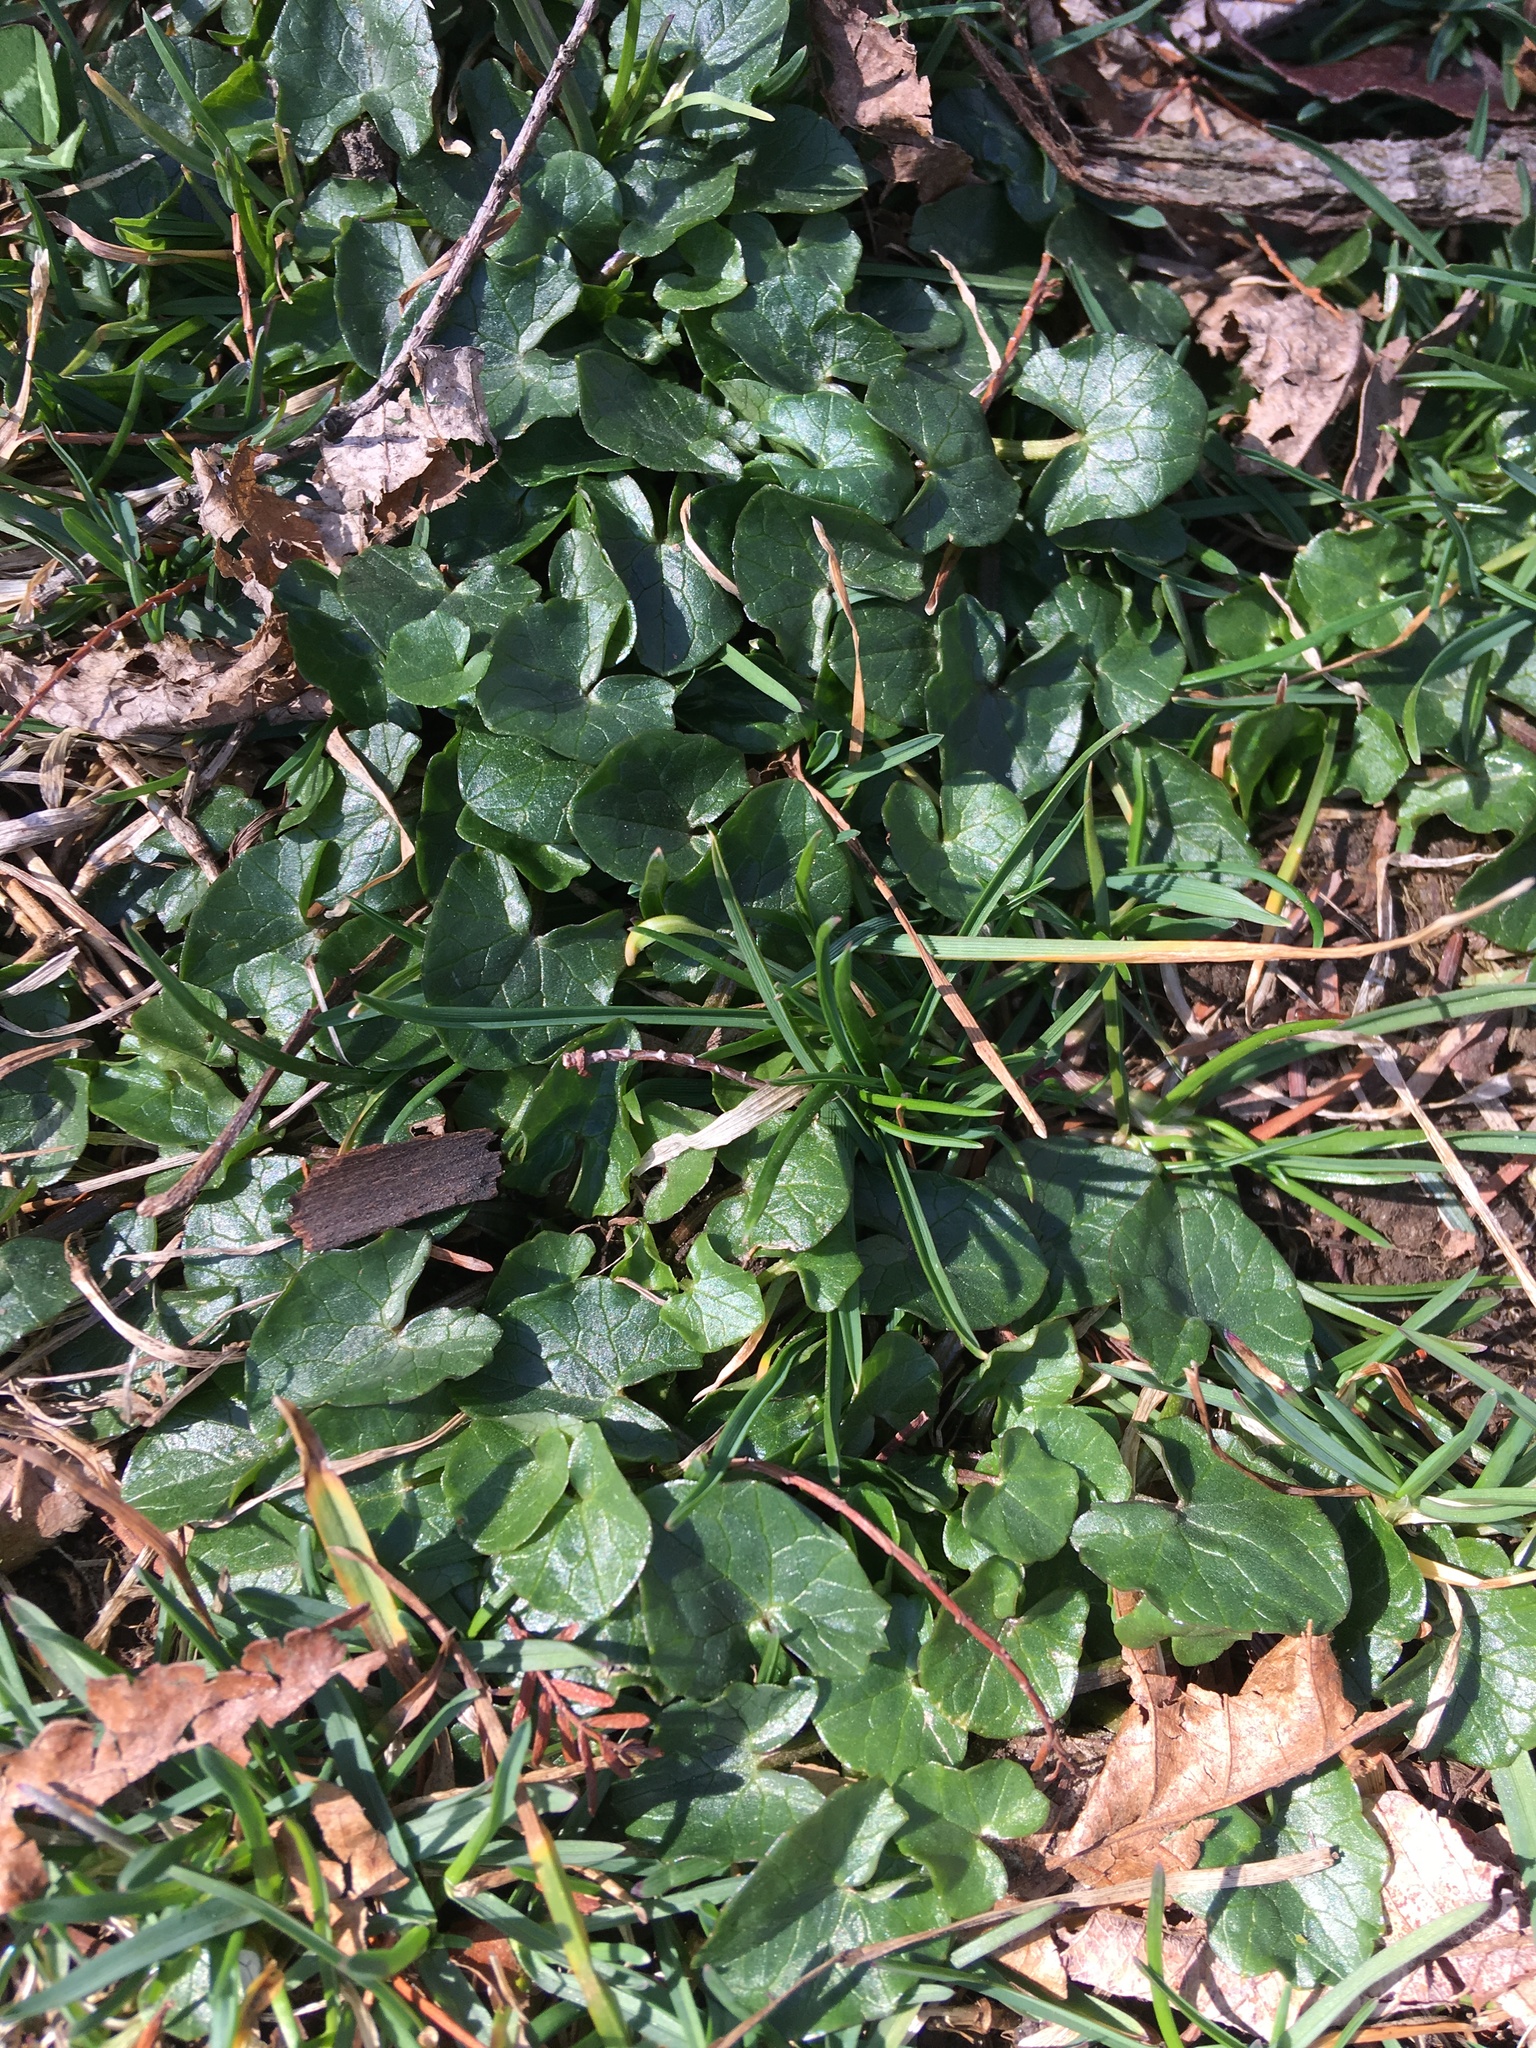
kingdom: Plantae
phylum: Tracheophyta
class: Magnoliopsida
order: Ranunculales
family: Ranunculaceae
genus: Ficaria
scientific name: Ficaria verna
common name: Lesser celandine
